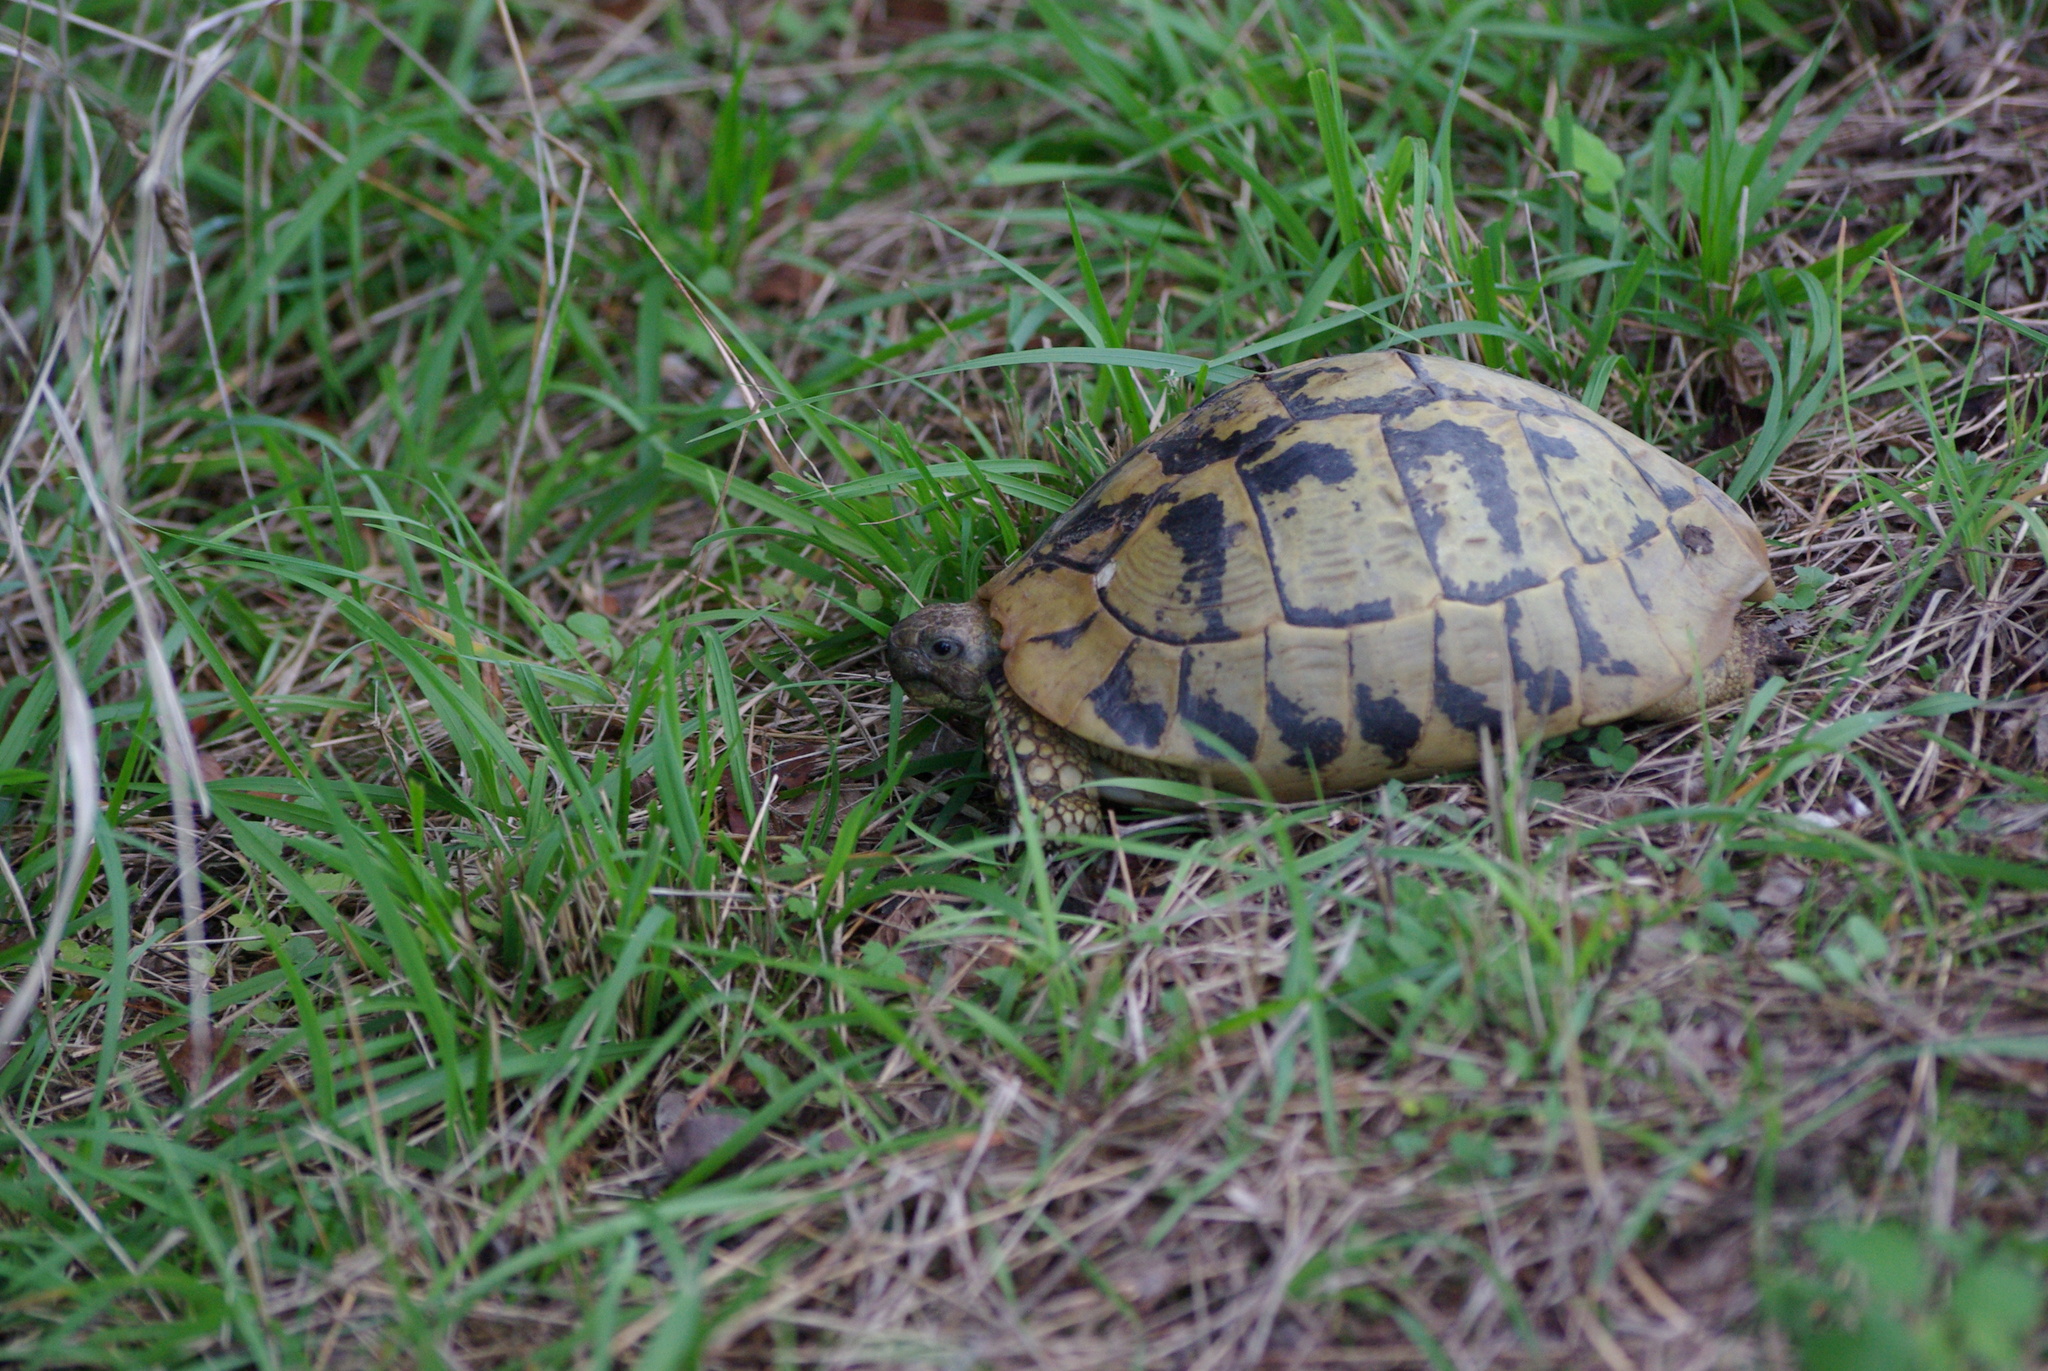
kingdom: Animalia
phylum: Chordata
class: Testudines
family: Testudinidae
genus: Testudo
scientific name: Testudo hermanni
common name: Hermann's tortoise
